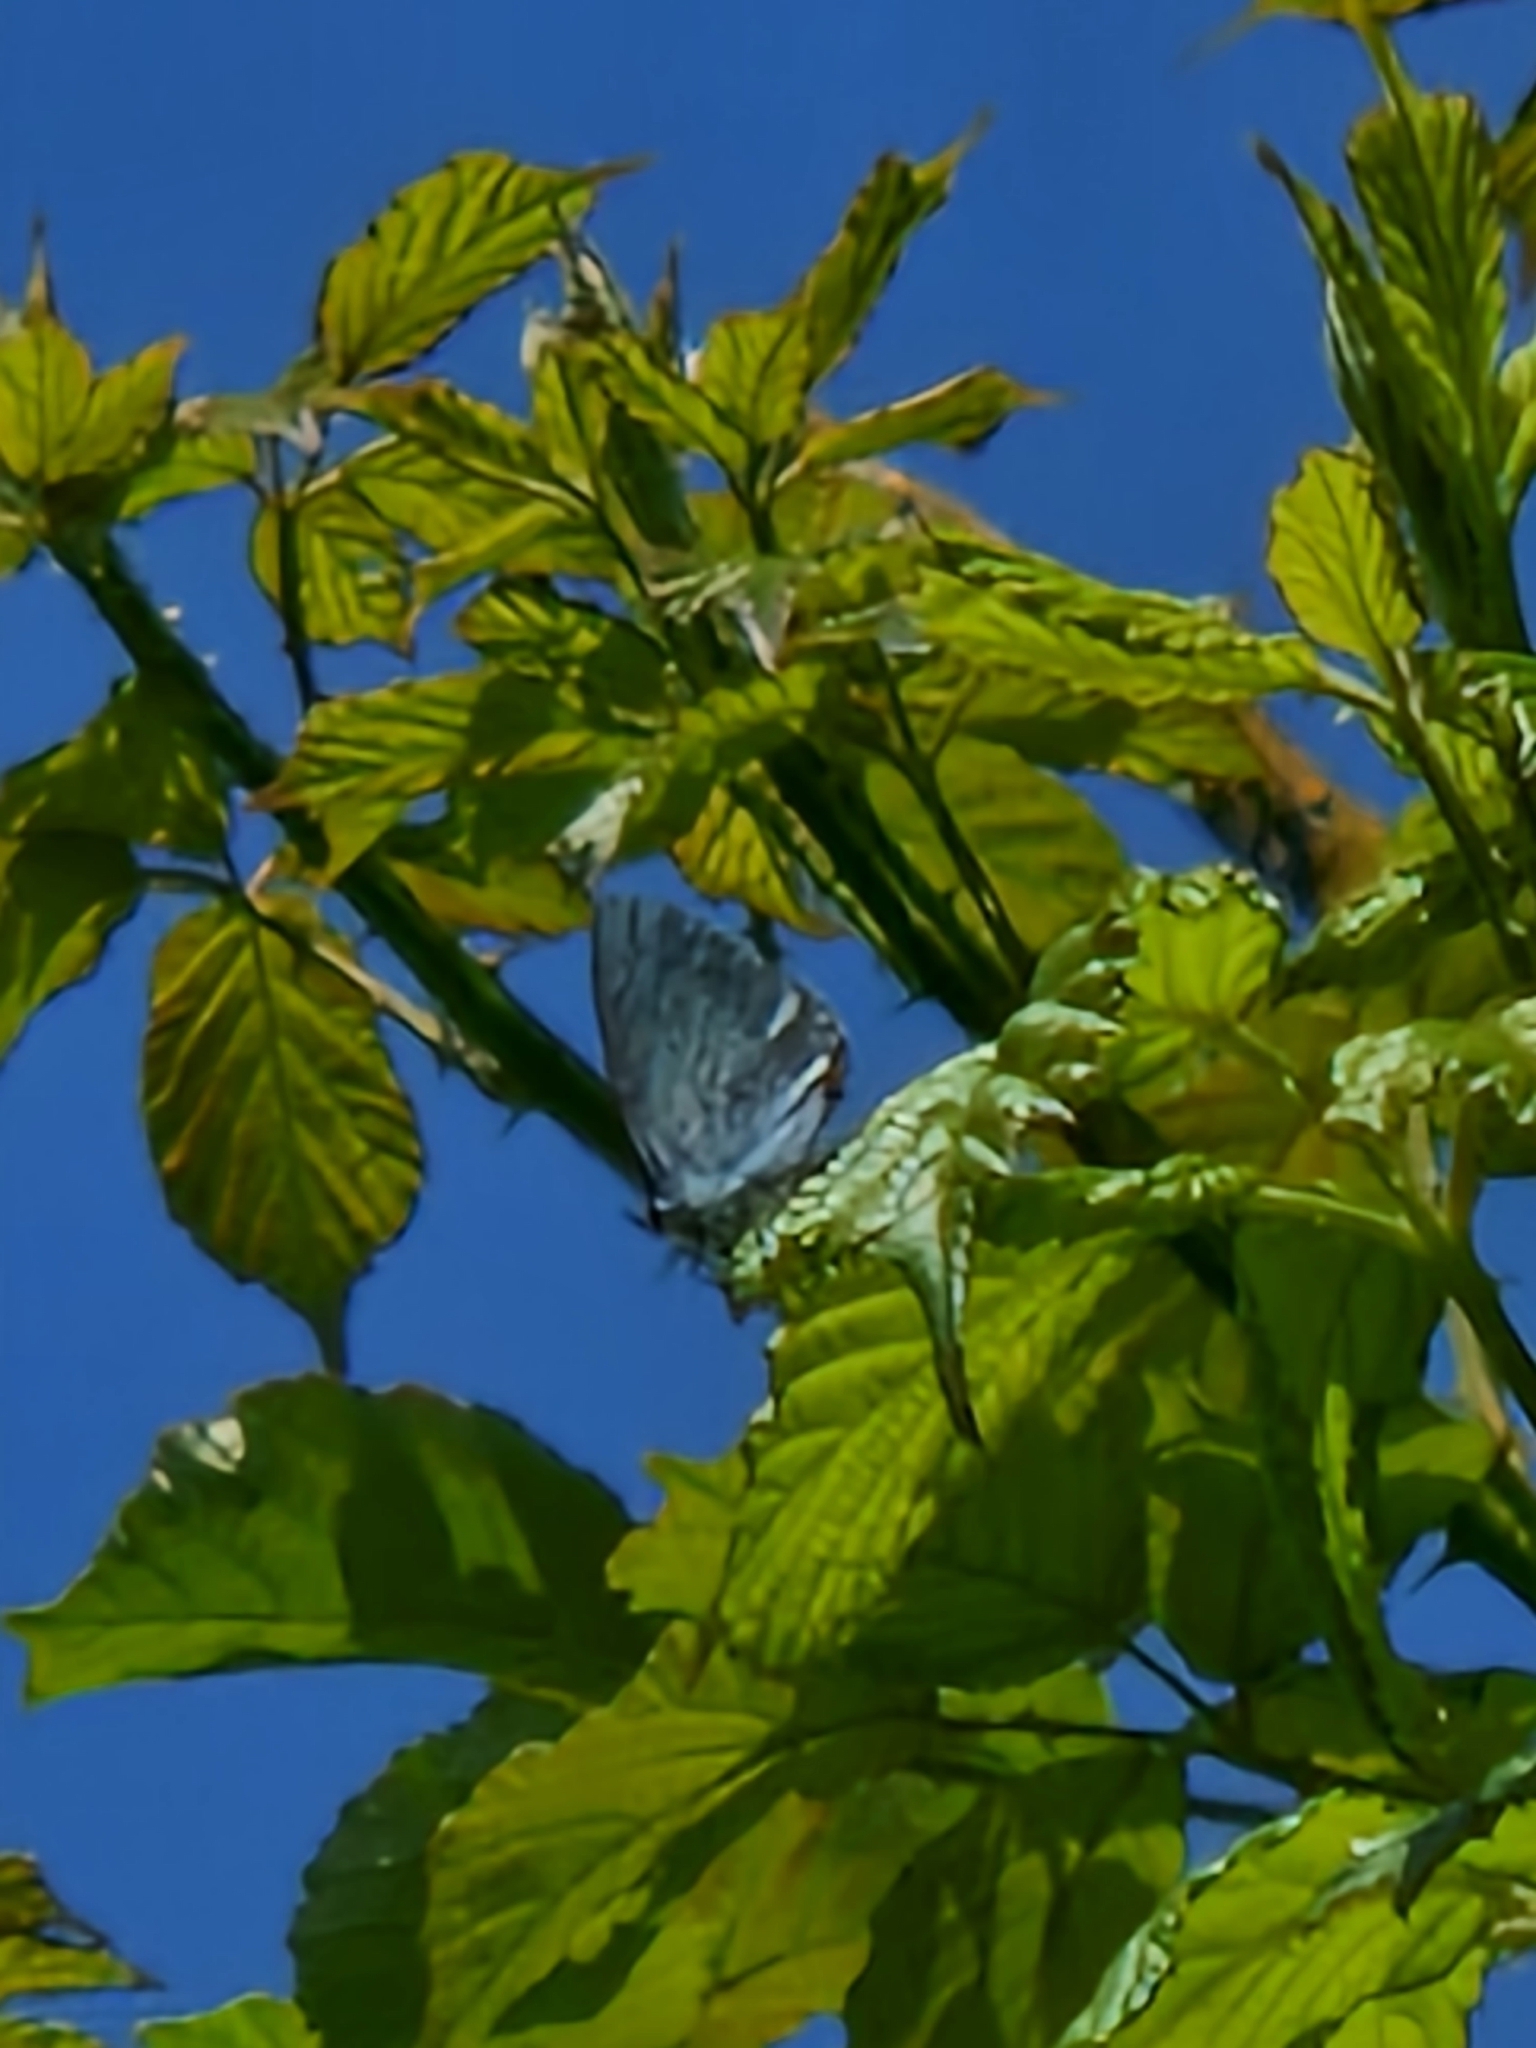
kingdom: Animalia
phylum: Arthropoda
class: Insecta
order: Lepidoptera
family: Lycaenidae
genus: Celastrina
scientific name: Celastrina argiolus
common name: Holly blue
